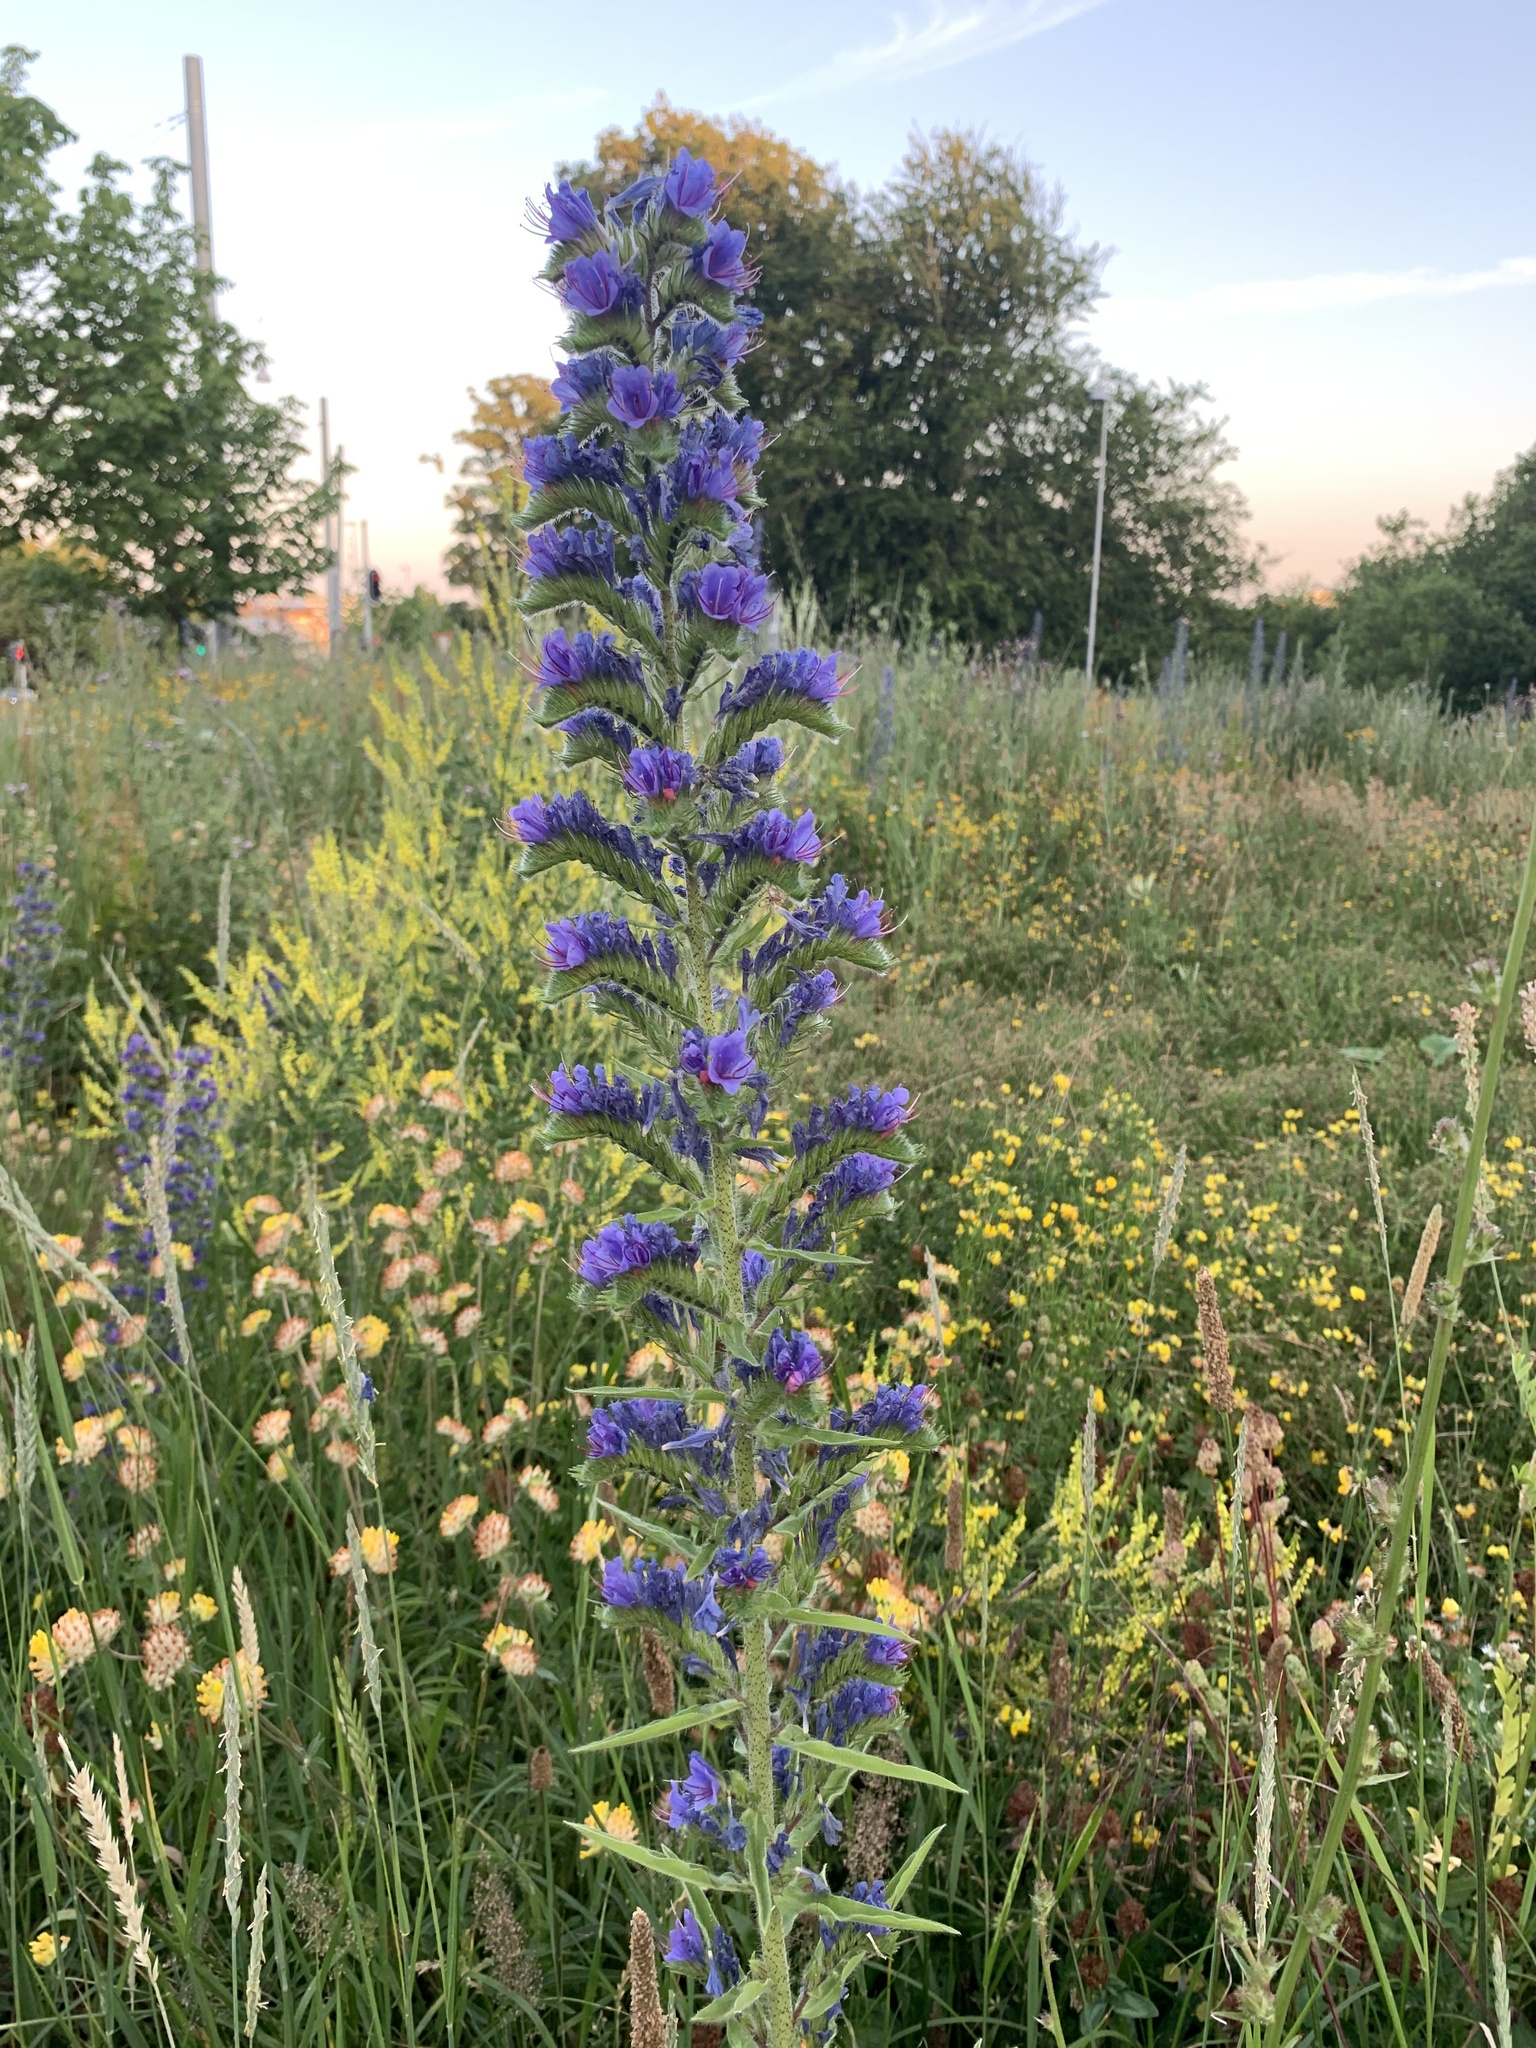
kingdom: Plantae
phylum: Tracheophyta
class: Magnoliopsida
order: Boraginales
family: Boraginaceae
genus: Echium
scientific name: Echium vulgare
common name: Common viper's bugloss
